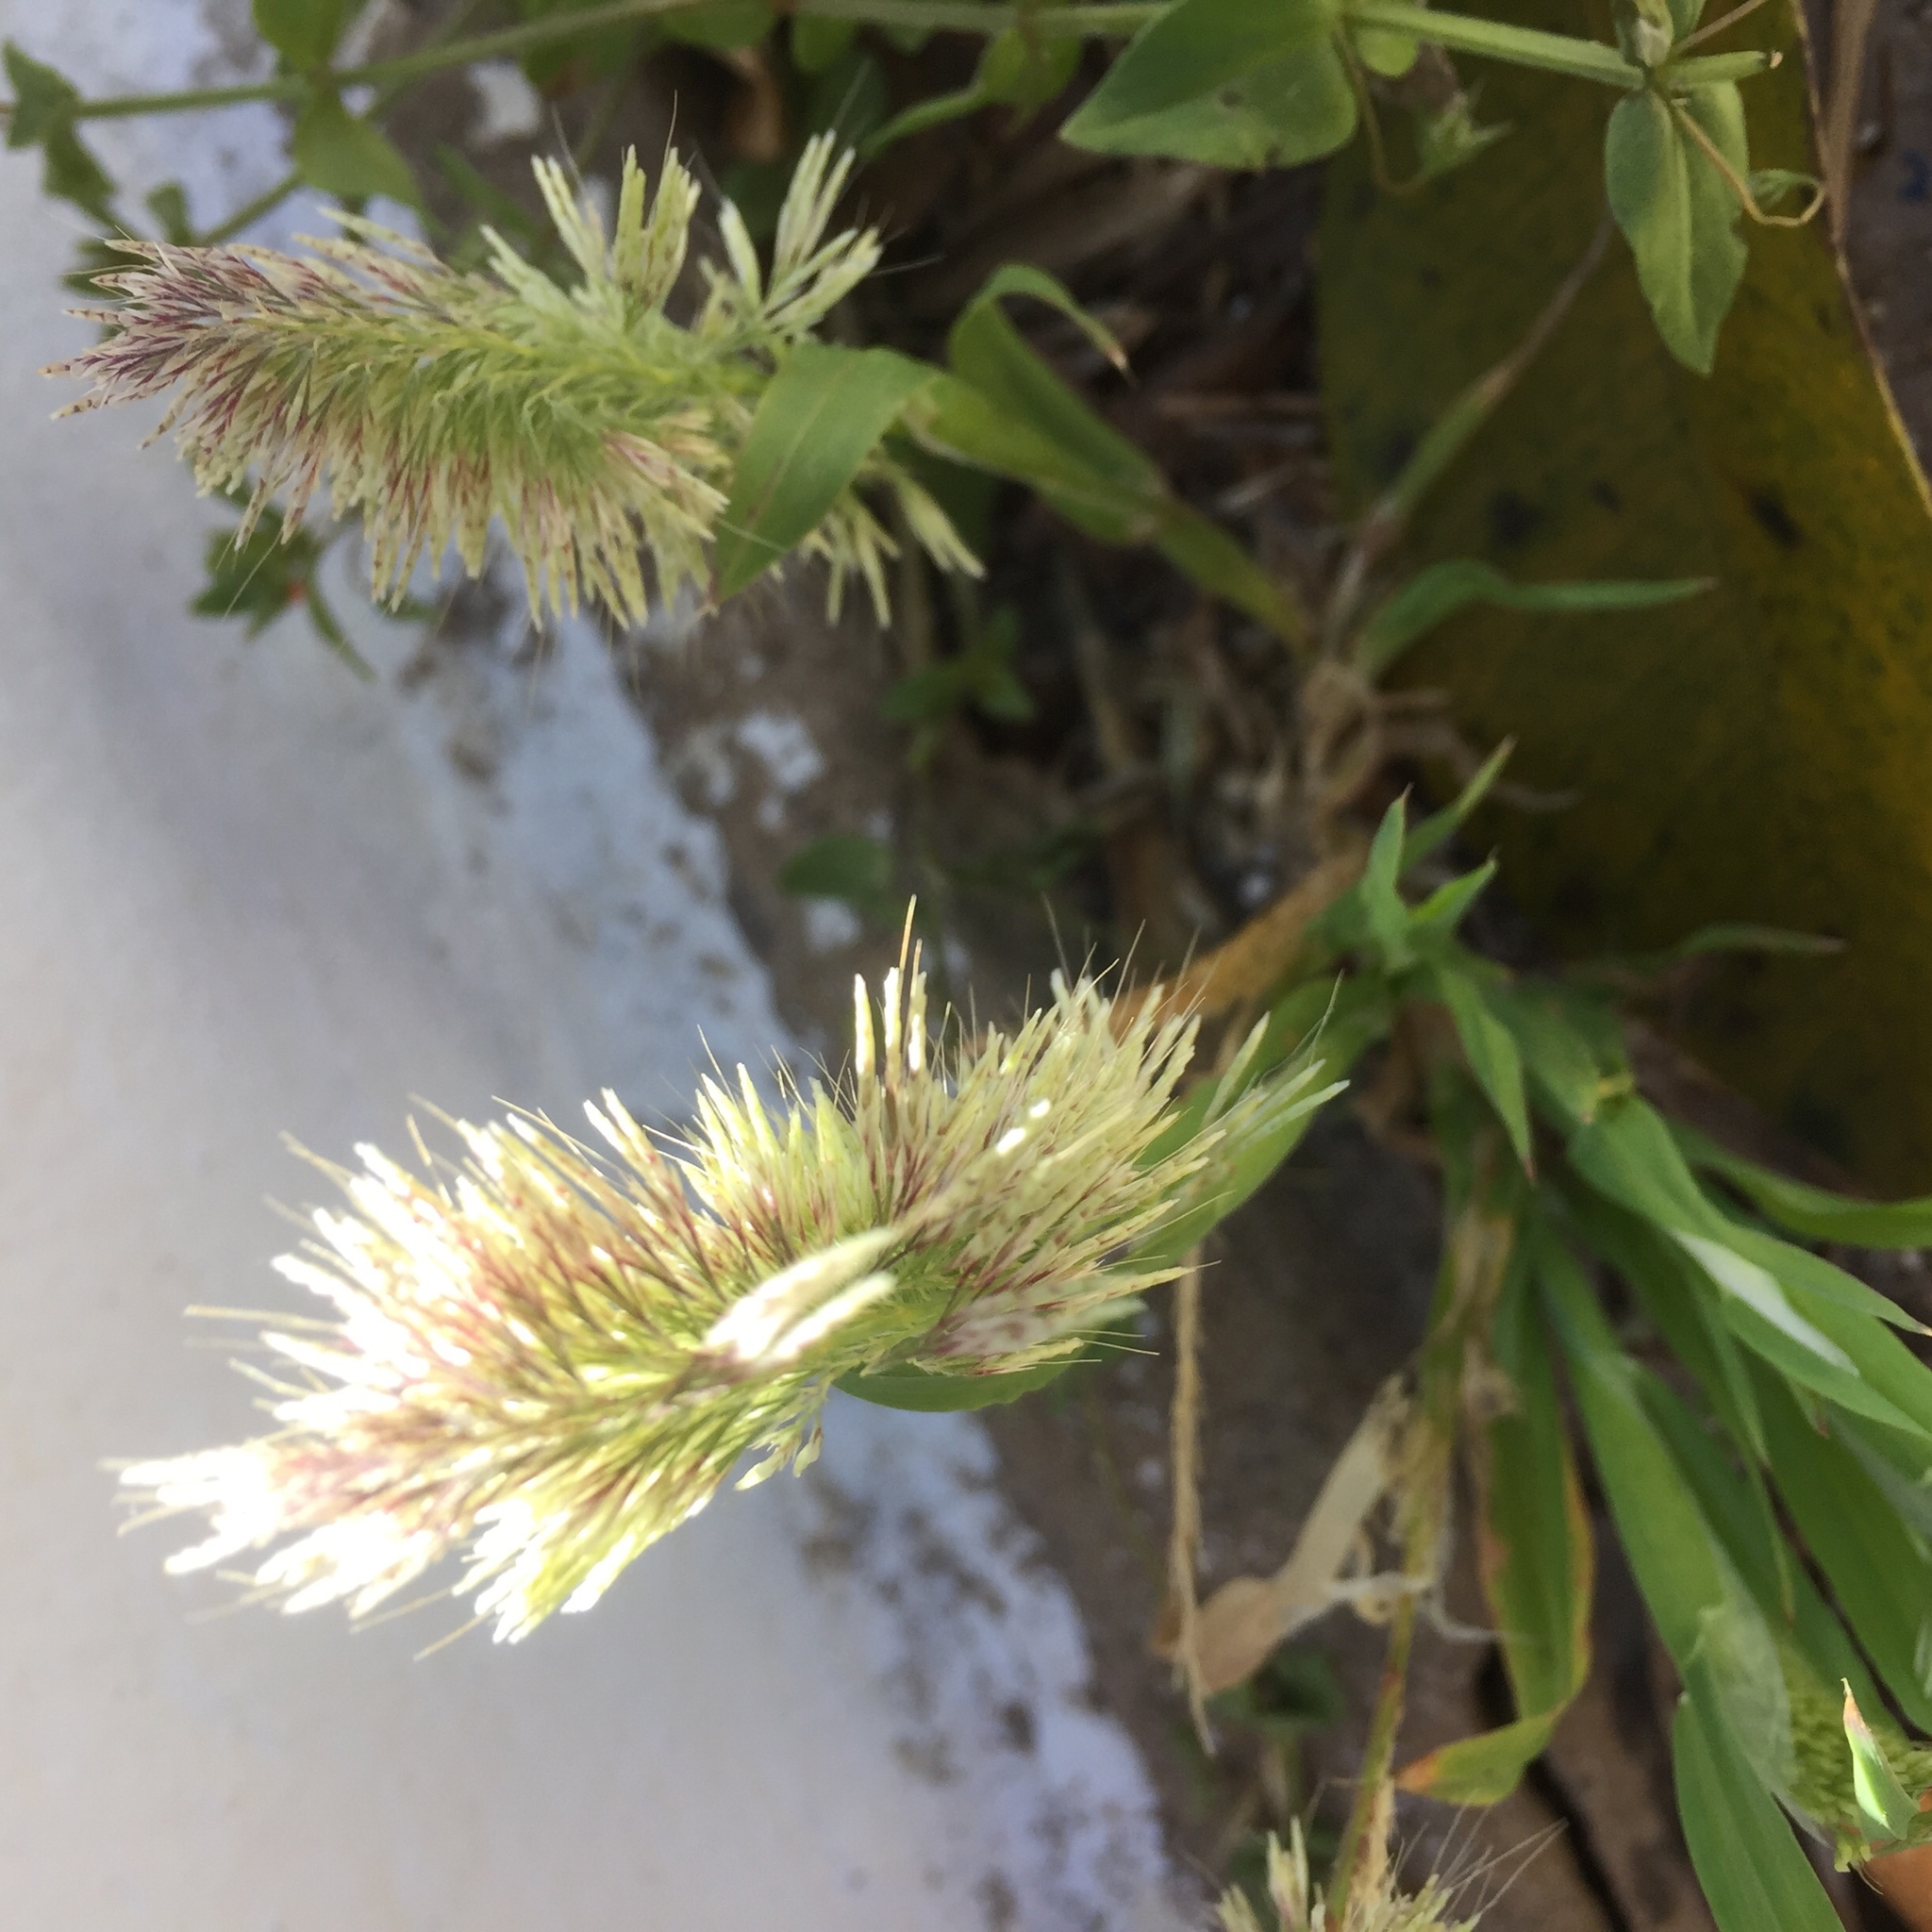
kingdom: Plantae
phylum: Tracheophyta
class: Liliopsida
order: Poales
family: Poaceae
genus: Lamarckia
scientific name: Lamarckia aurea
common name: Golden dog's-tail
